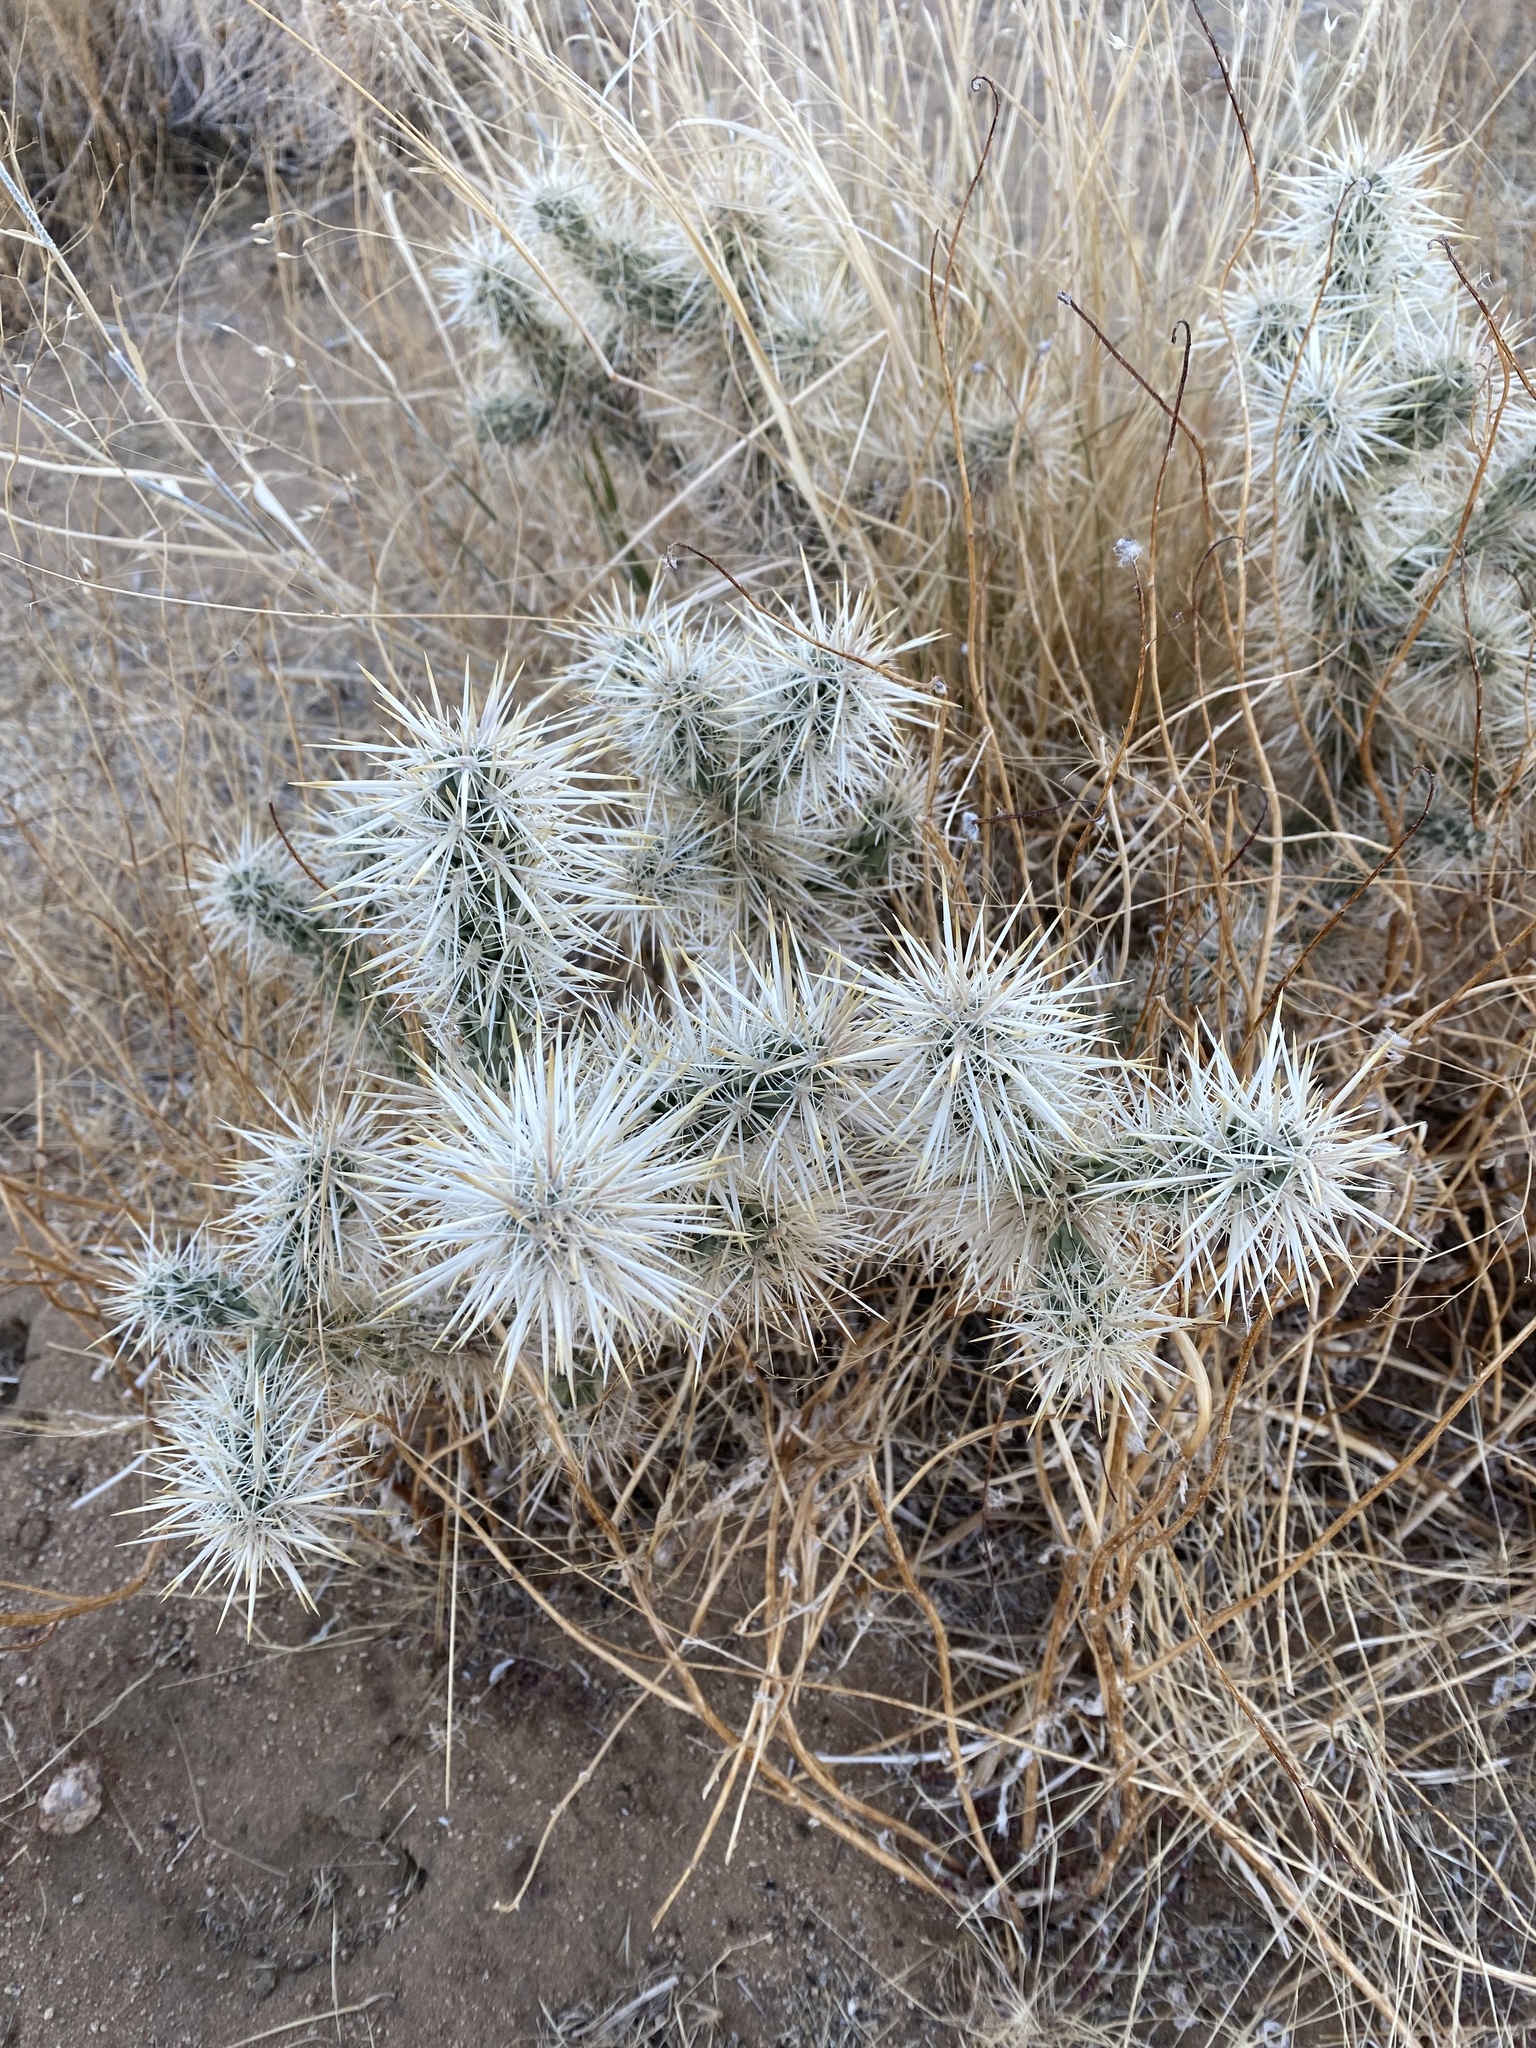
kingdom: Plantae
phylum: Tracheophyta
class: Magnoliopsida
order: Caryophyllales
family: Cactaceae
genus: Cylindropuntia
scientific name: Cylindropuntia echinocarpa
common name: Ground cholla
